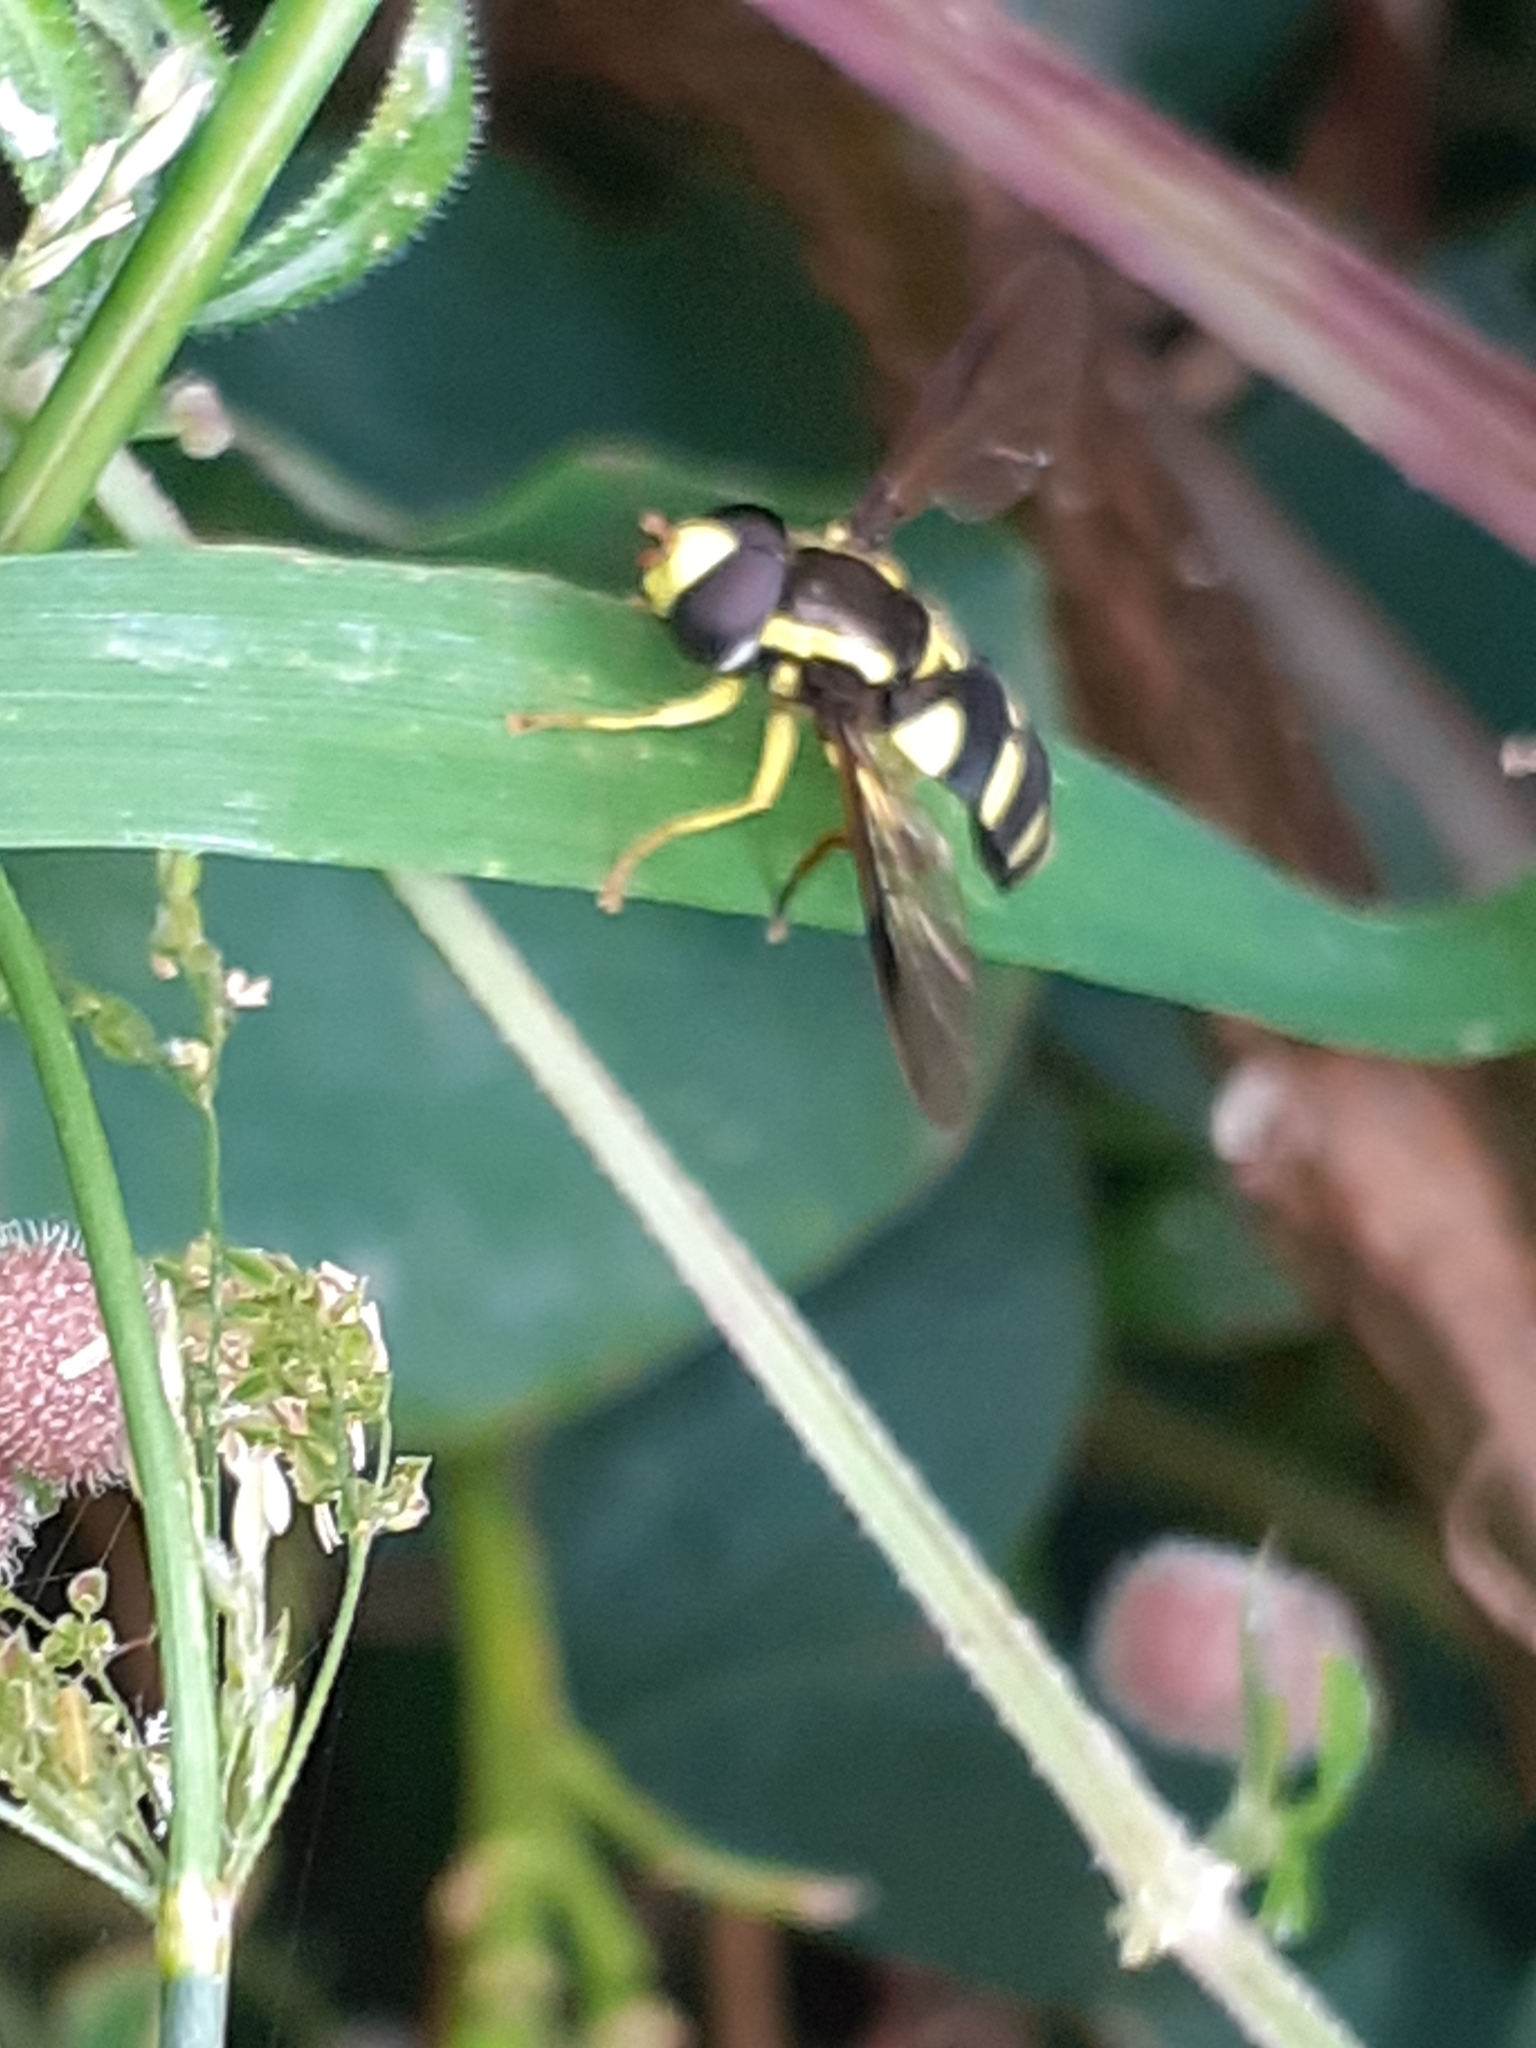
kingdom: Animalia
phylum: Arthropoda
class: Insecta
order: Diptera
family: Syrphidae
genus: Philhelius
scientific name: Philhelius pedissequum
